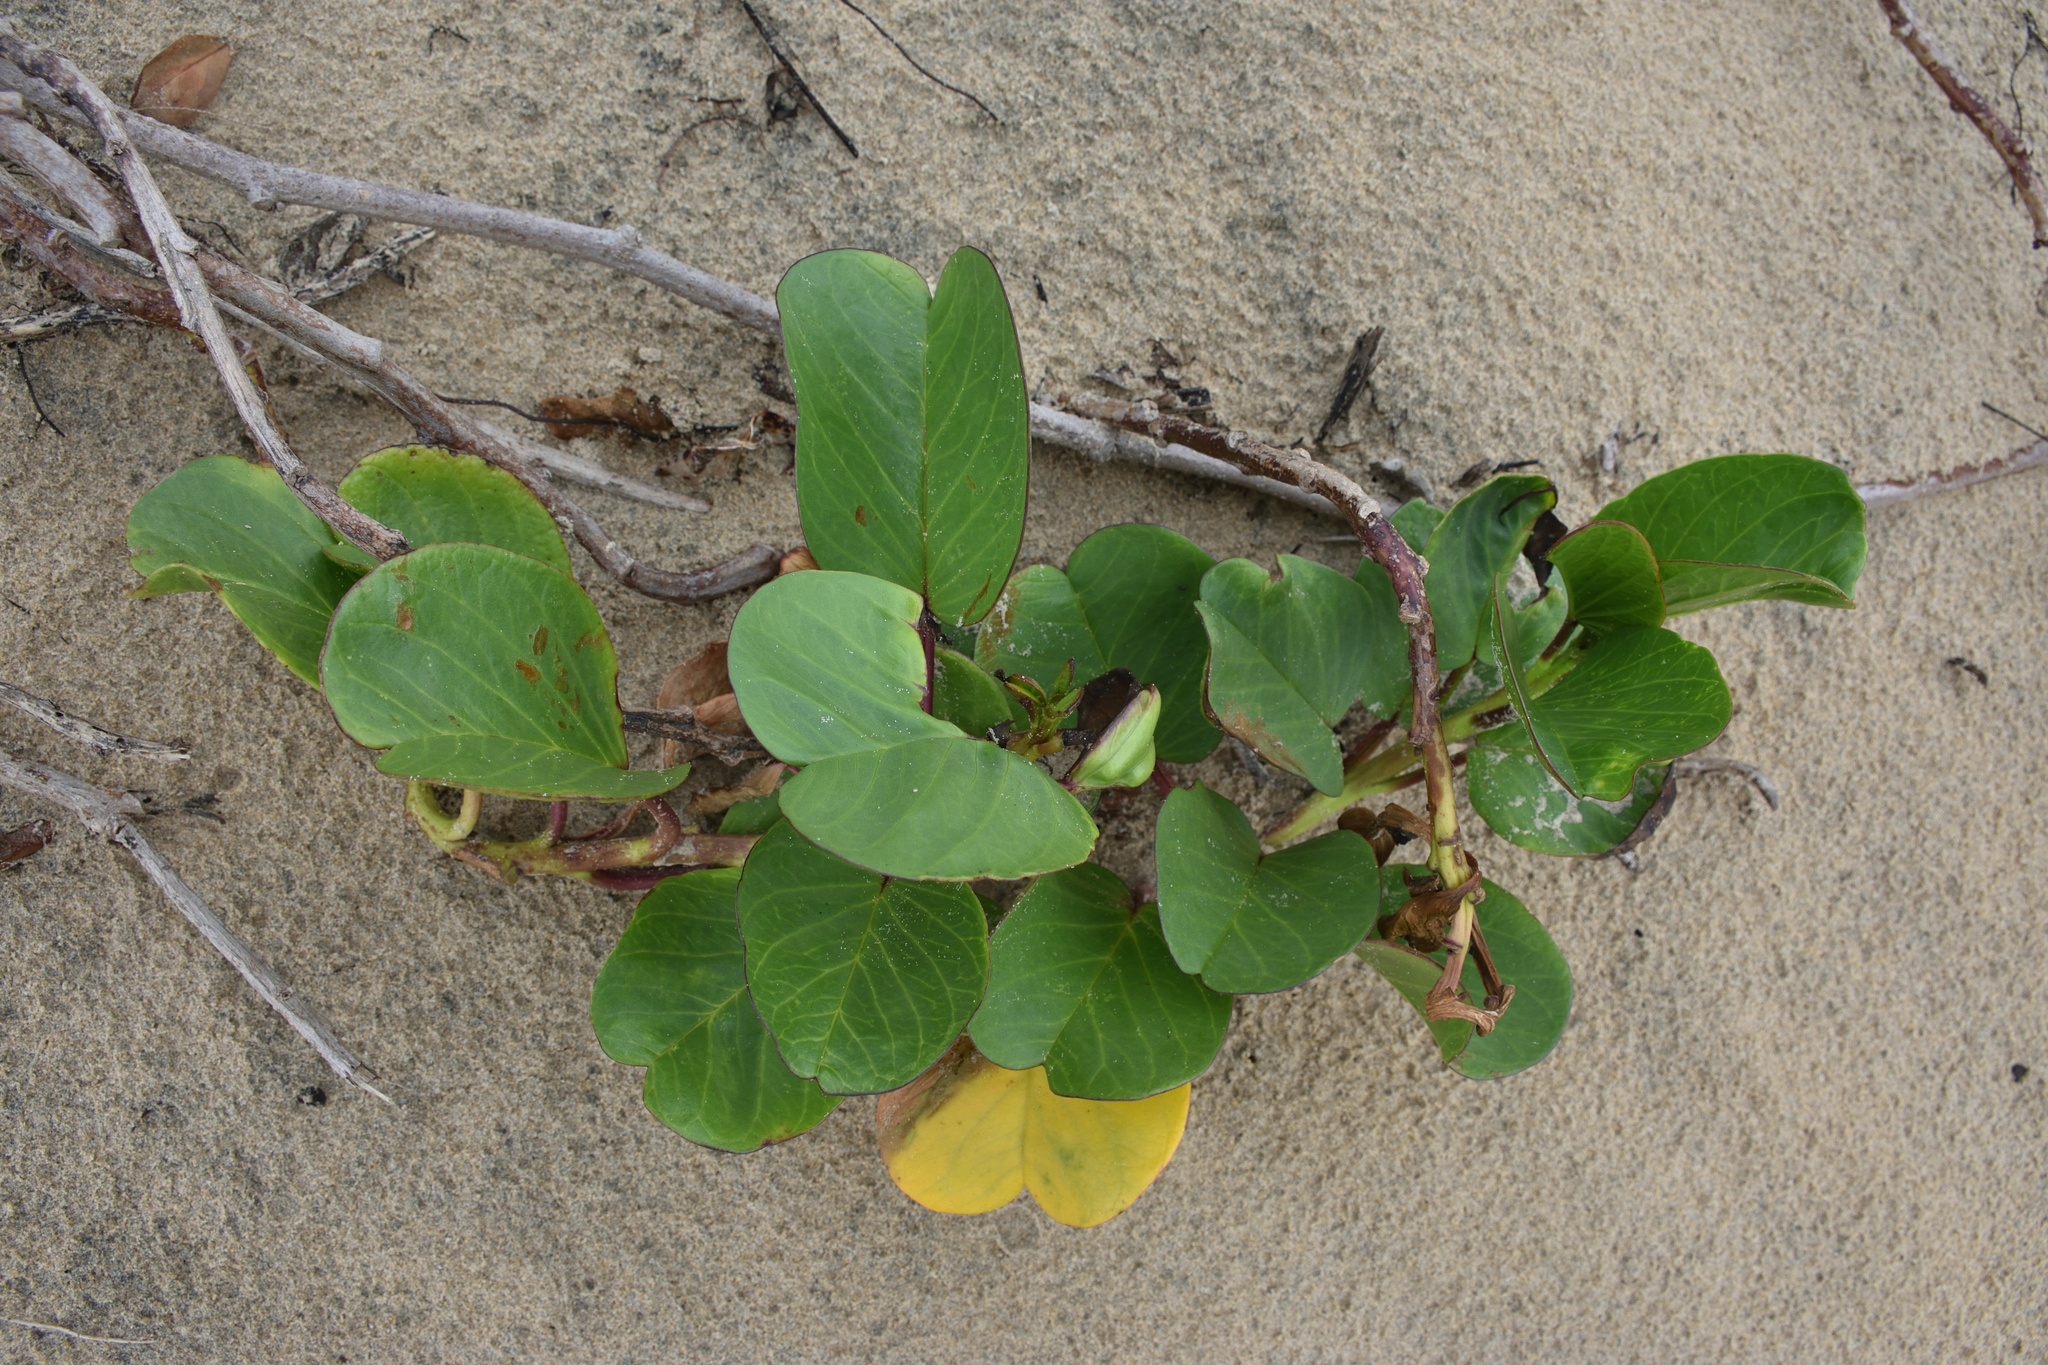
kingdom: Plantae
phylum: Tracheophyta
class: Magnoliopsida
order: Solanales
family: Convolvulaceae
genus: Ipomoea
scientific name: Ipomoea pes-caprae
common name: Beach morning glory
